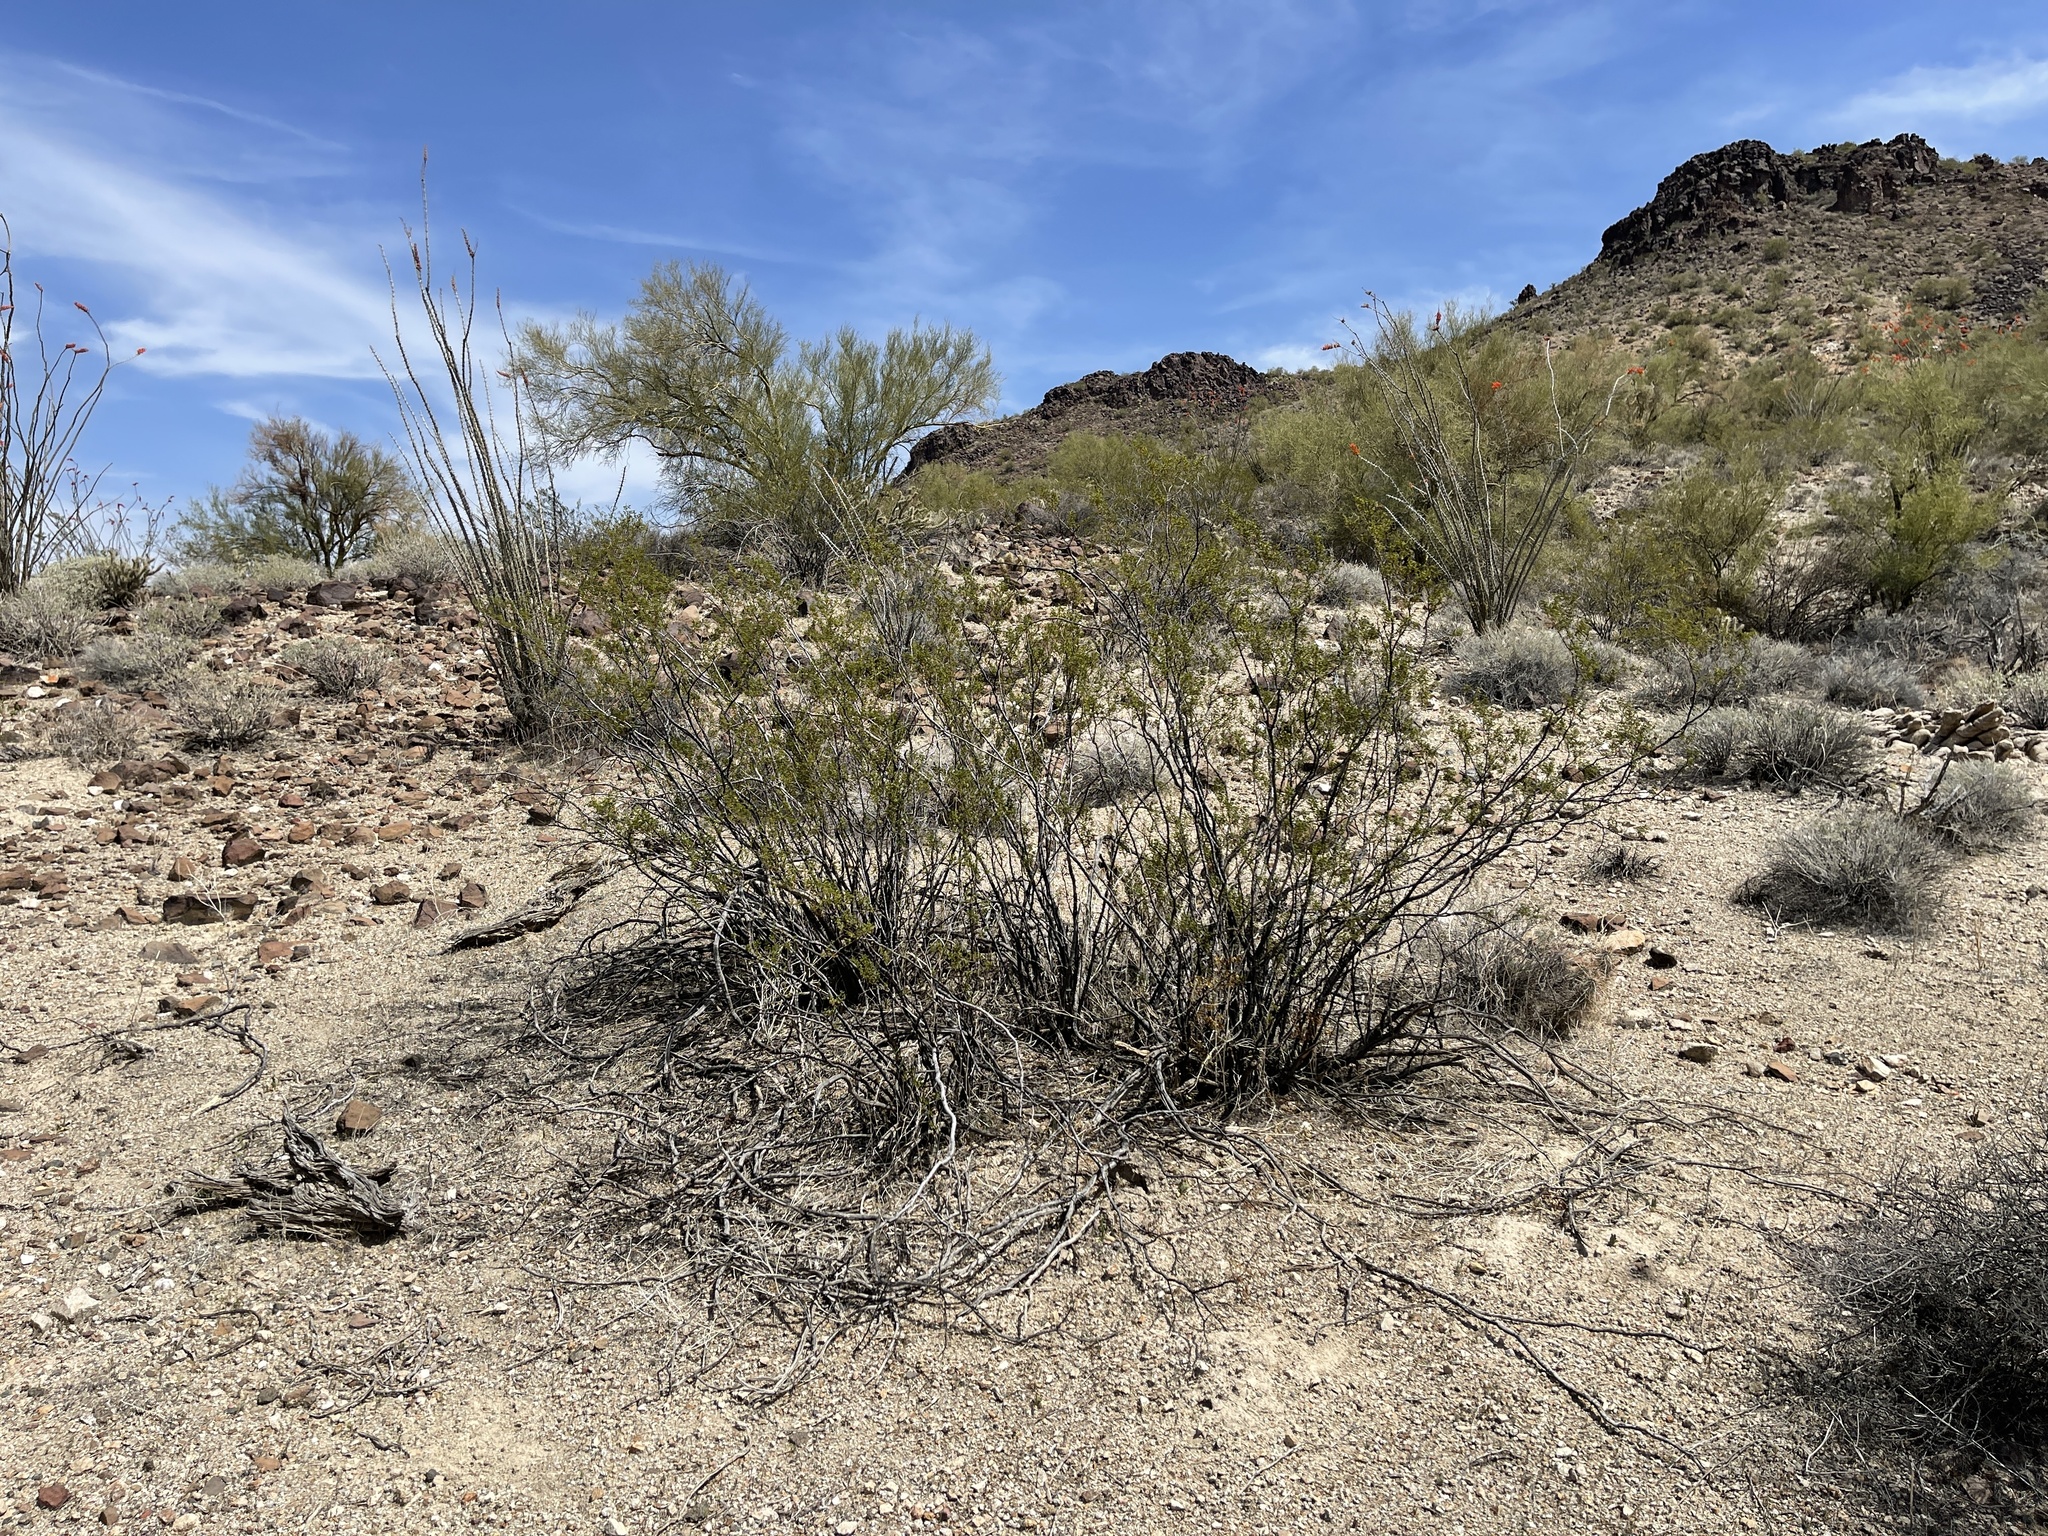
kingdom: Plantae
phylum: Tracheophyta
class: Magnoliopsida
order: Zygophyllales
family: Zygophyllaceae
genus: Larrea
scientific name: Larrea tridentata
